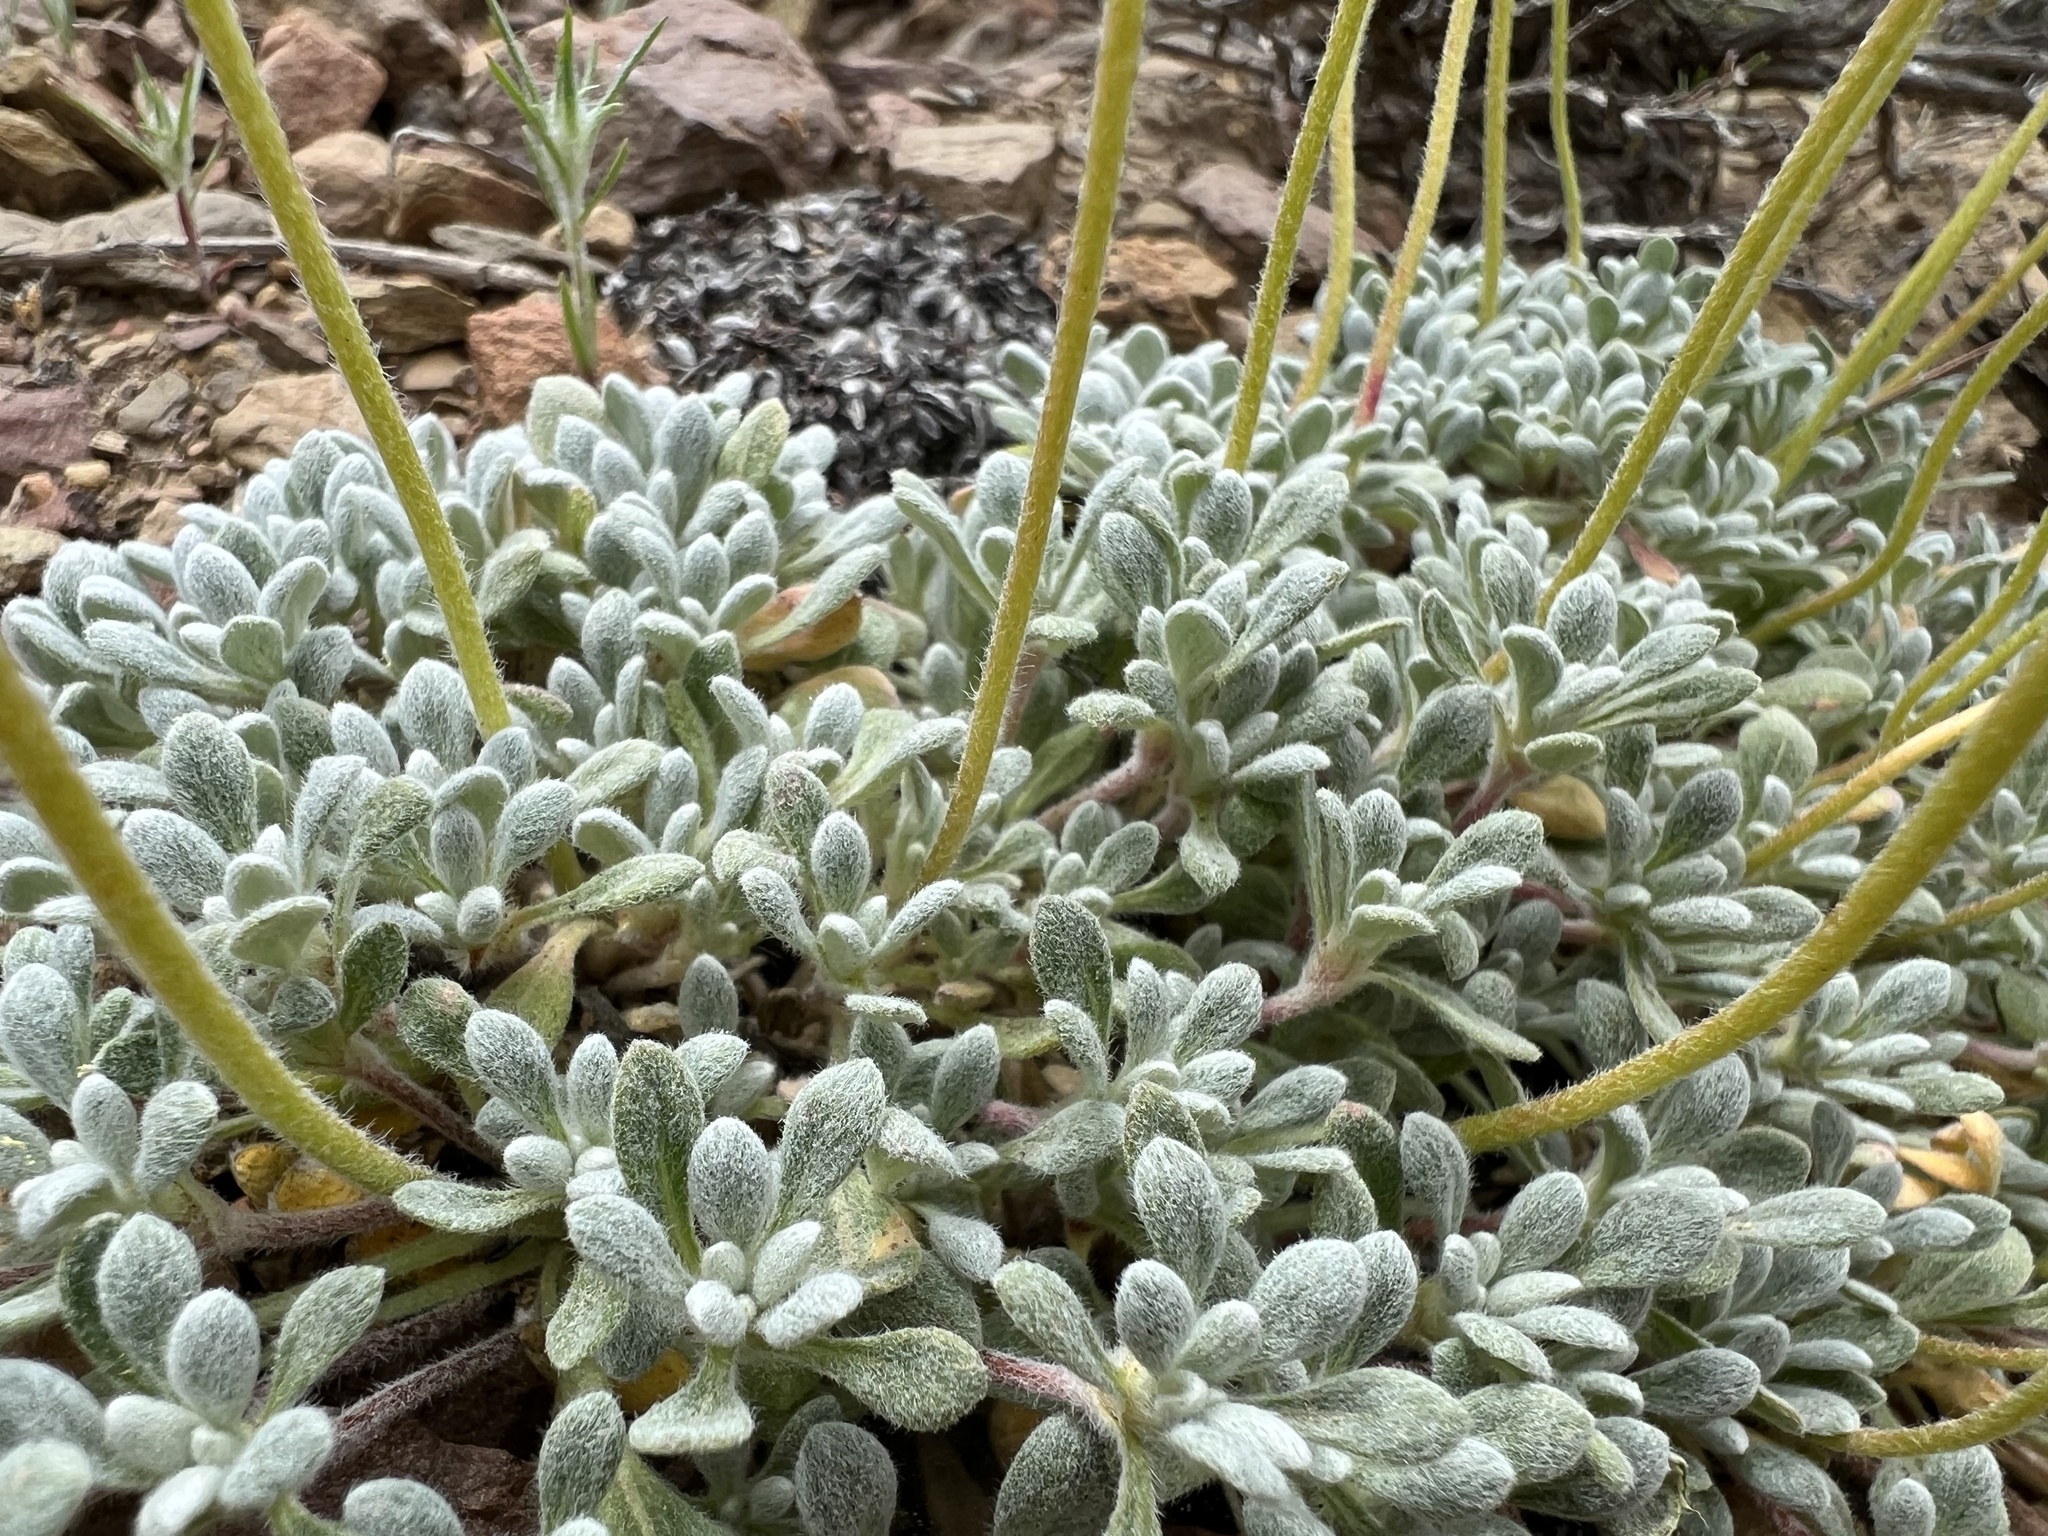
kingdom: Plantae
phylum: Tracheophyta
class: Magnoliopsida
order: Caryophyllales
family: Polygonaceae
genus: Eriogonum
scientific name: Eriogonum caespitosum
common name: Matted wild buckwheat
